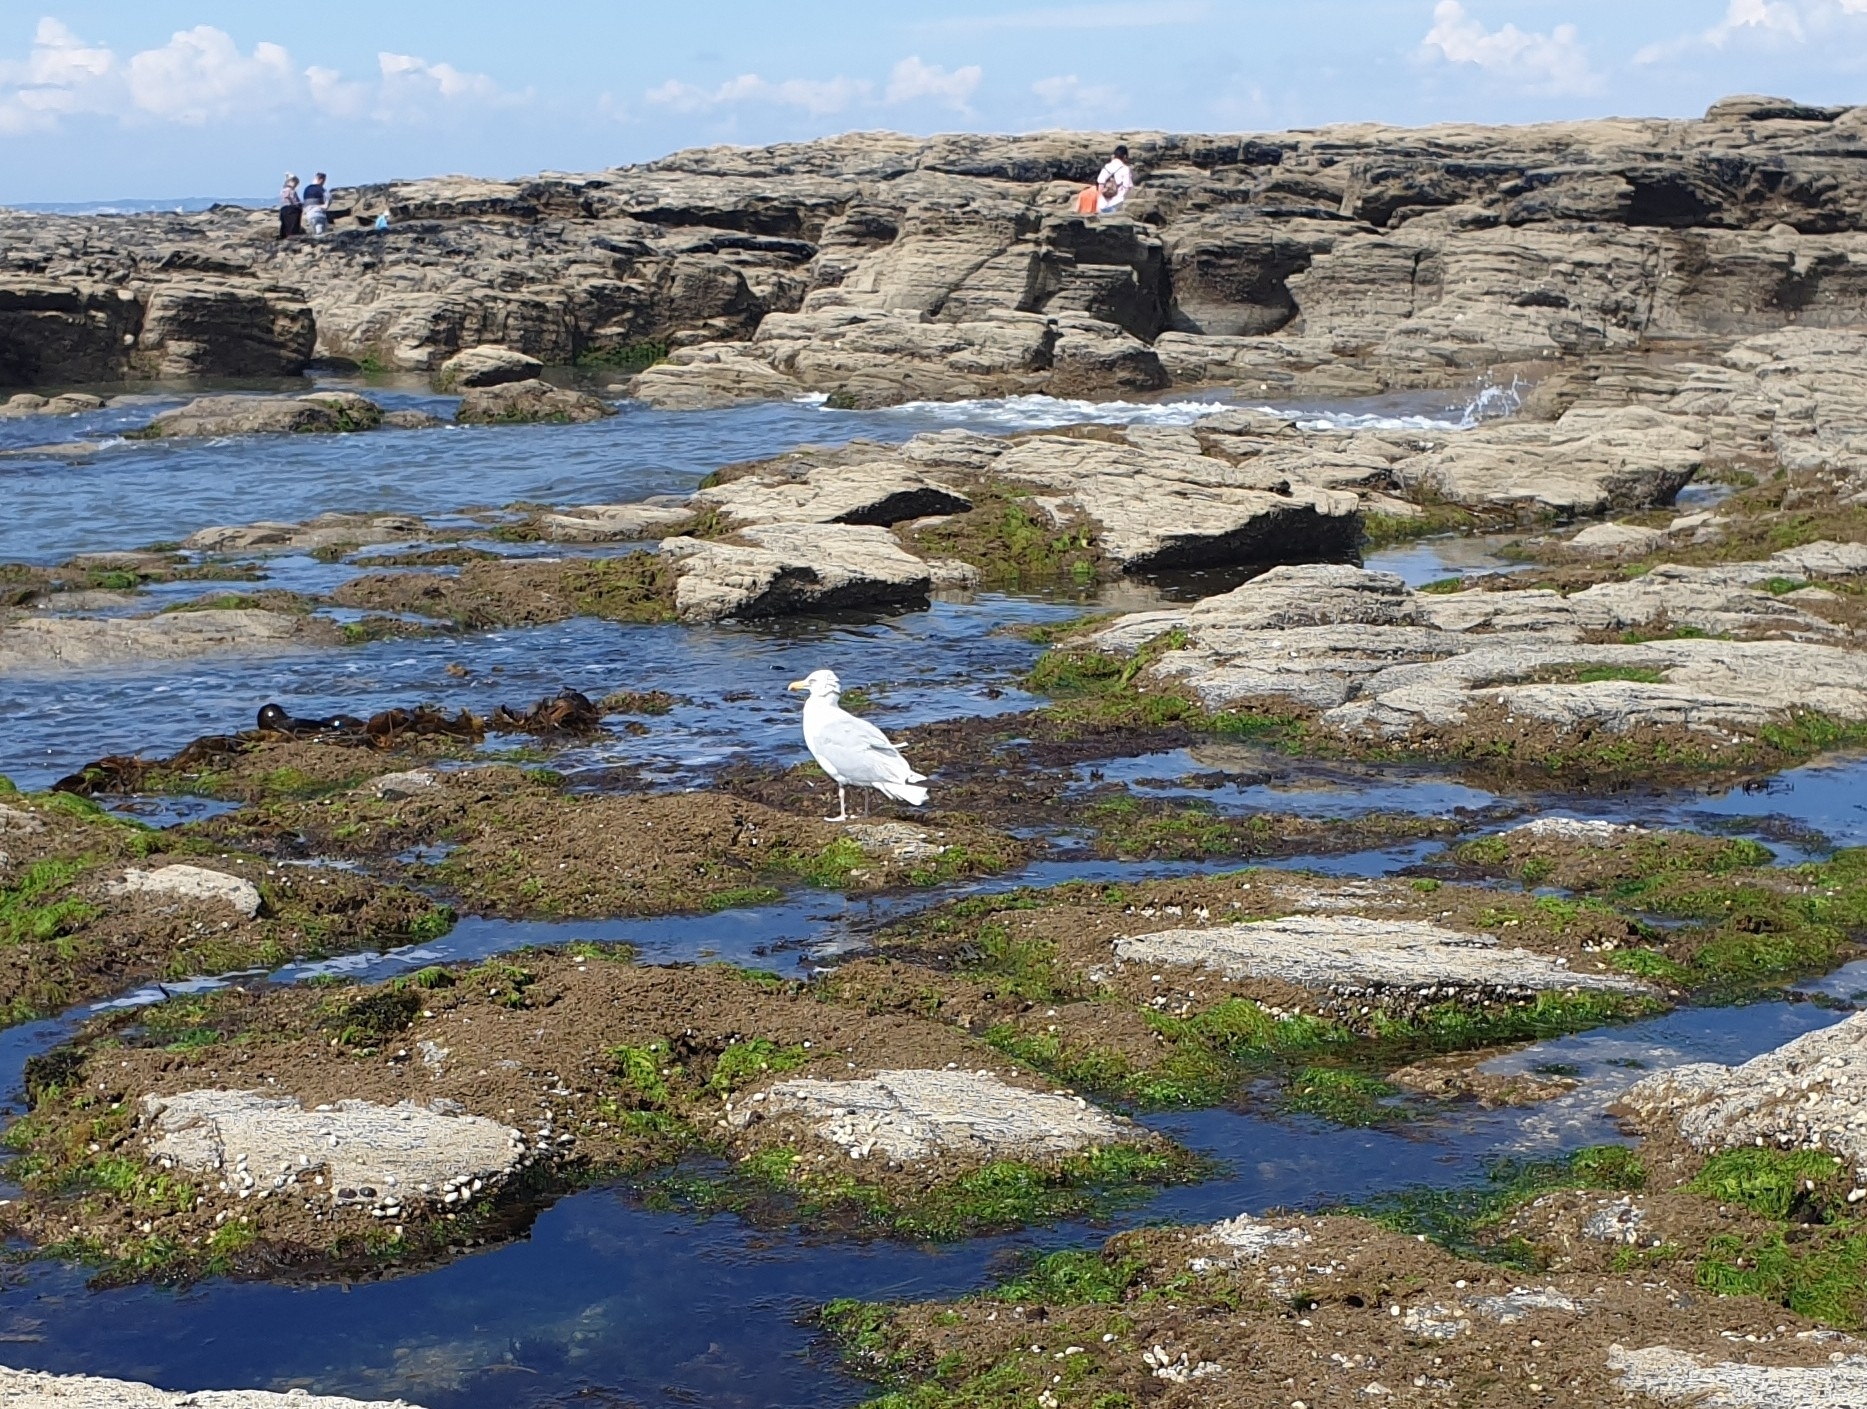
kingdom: Animalia
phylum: Chordata
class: Aves
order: Charadriiformes
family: Laridae
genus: Larus
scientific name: Larus argentatus
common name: Herring gull
